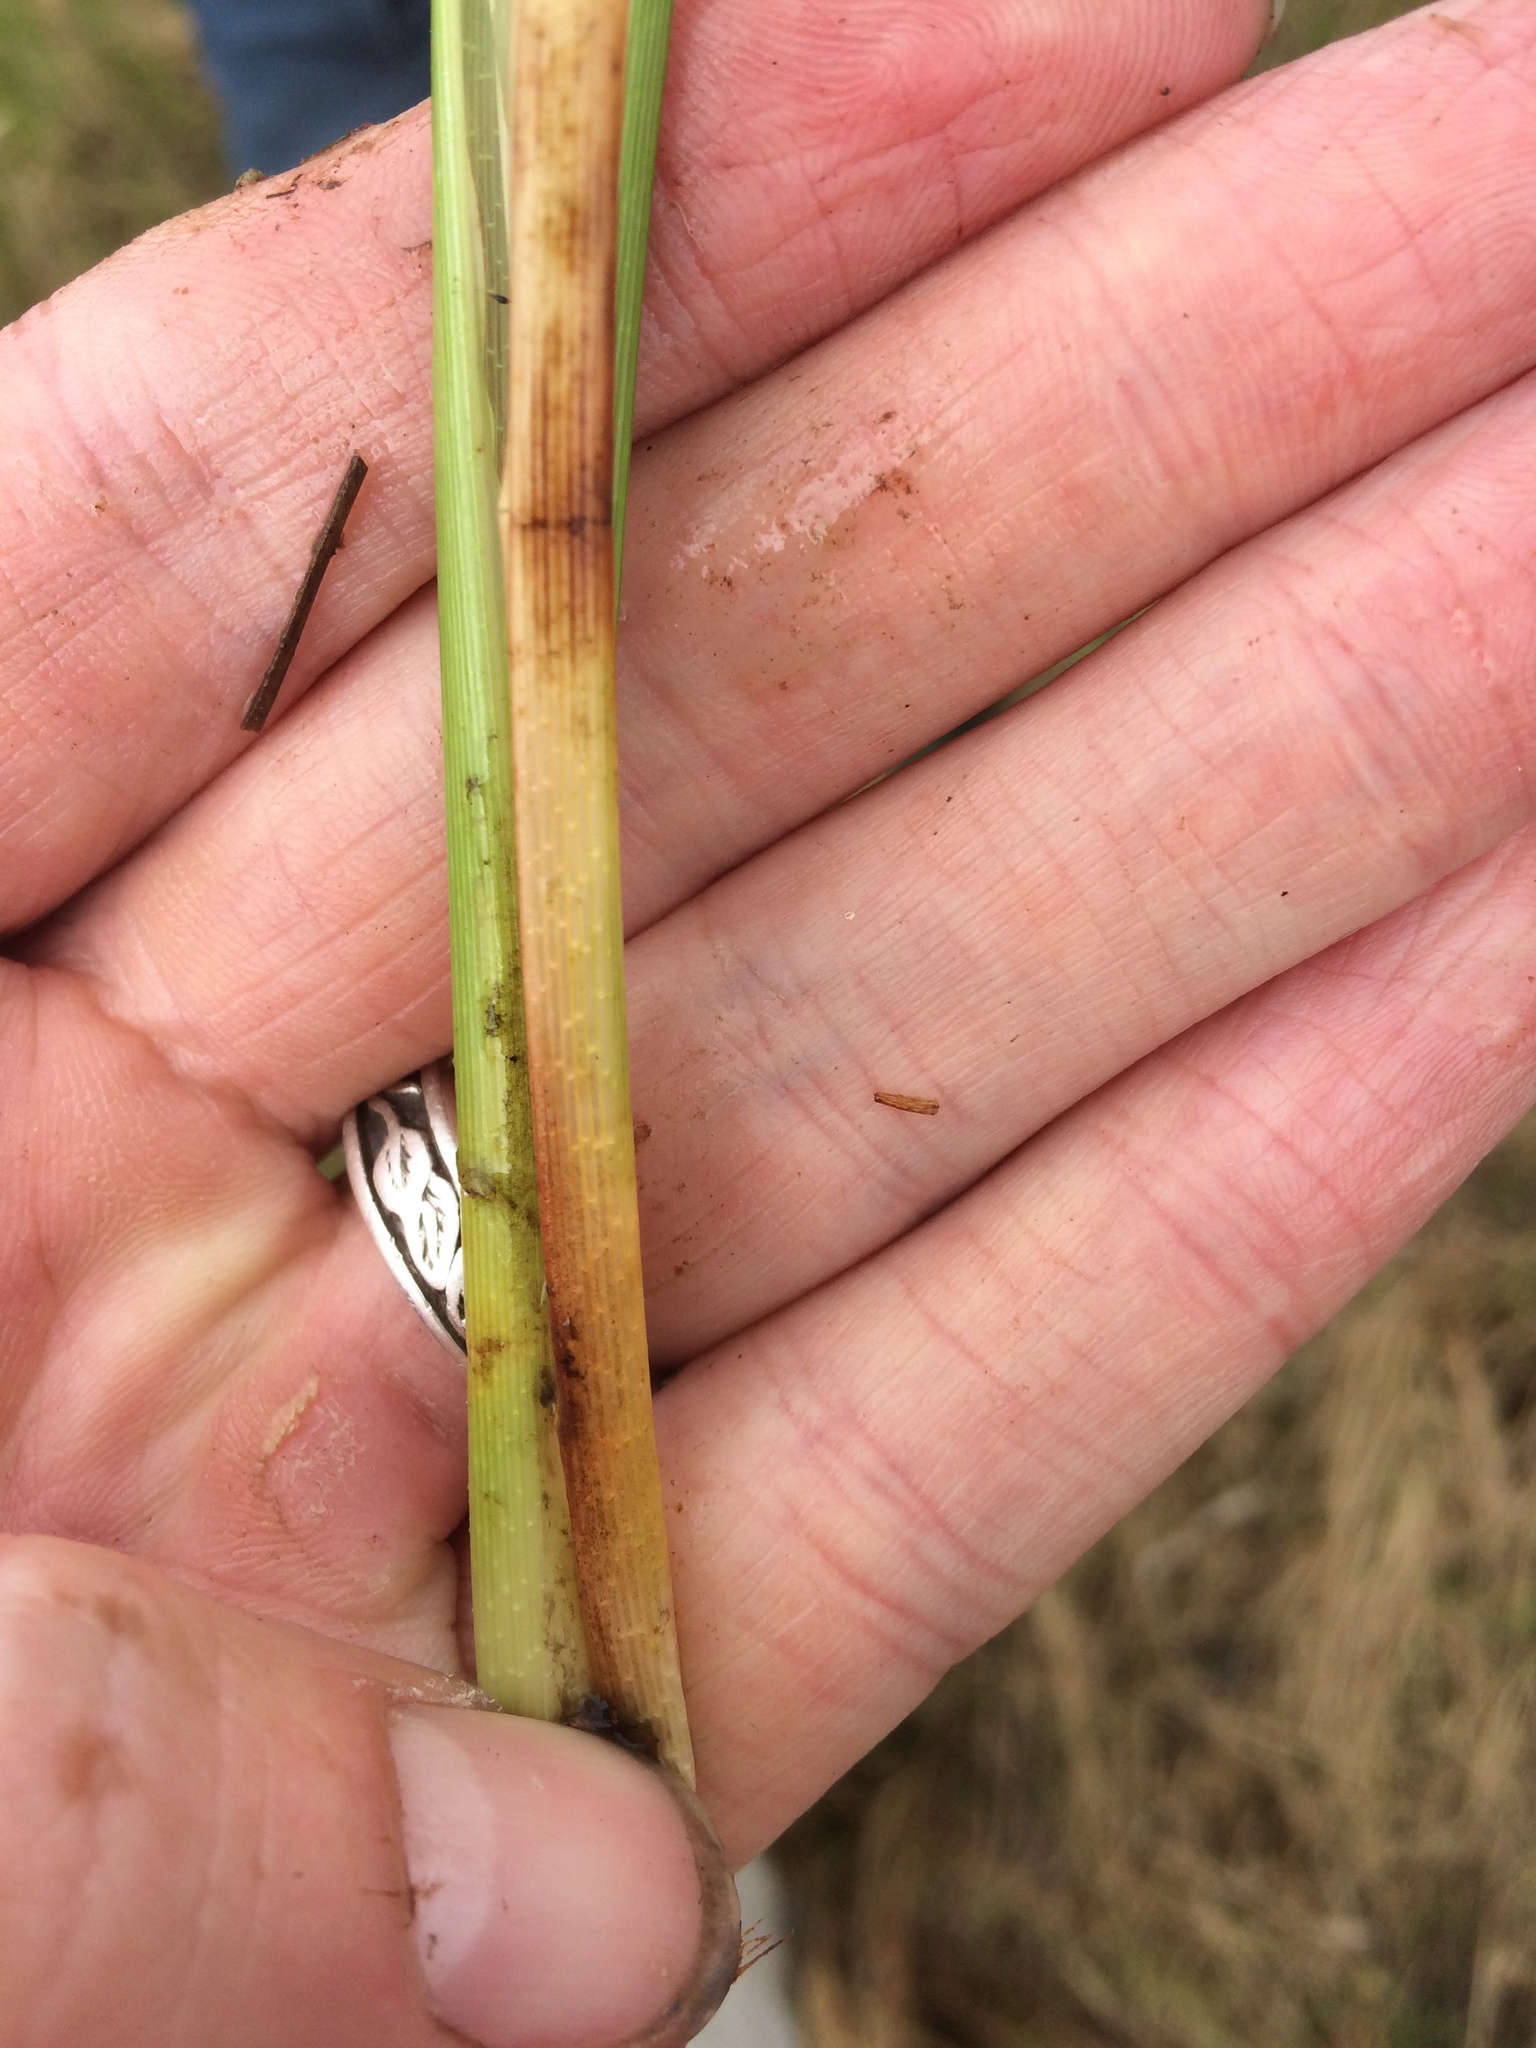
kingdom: Plantae
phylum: Tracheophyta
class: Liliopsida
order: Poales
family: Cyperaceae
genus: Carex
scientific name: Carex utriculata
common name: Beaked sedge
